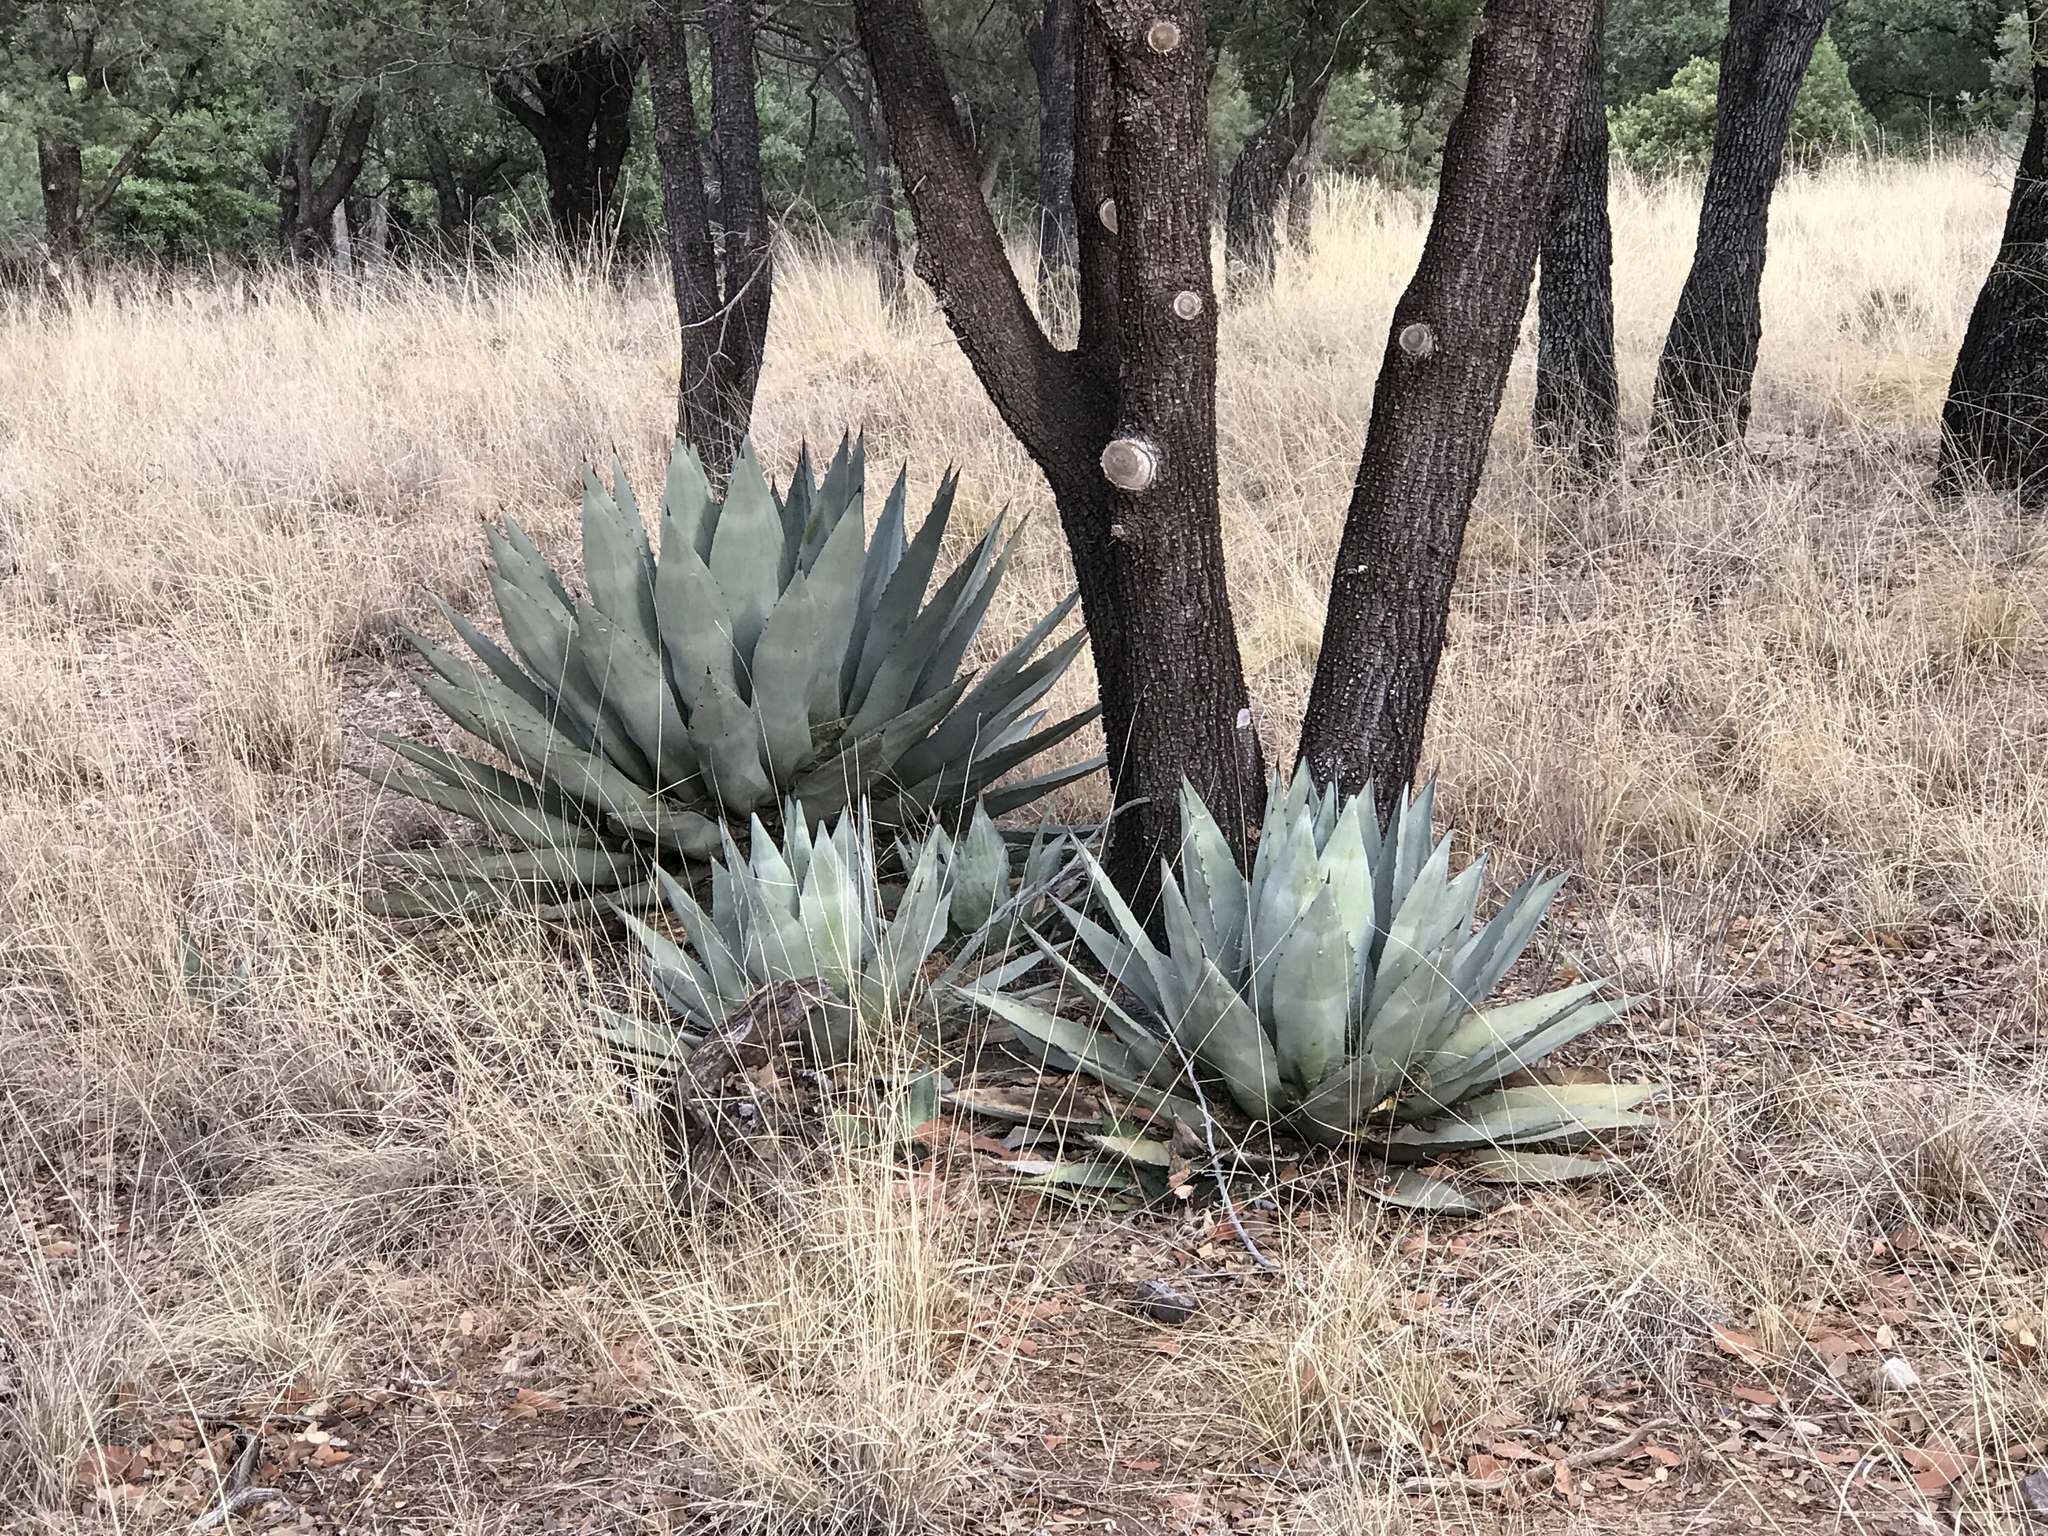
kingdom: Plantae
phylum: Tracheophyta
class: Liliopsida
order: Asparagales
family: Asparagaceae
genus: Agave
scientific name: Agave parryi
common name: Parry's agave
